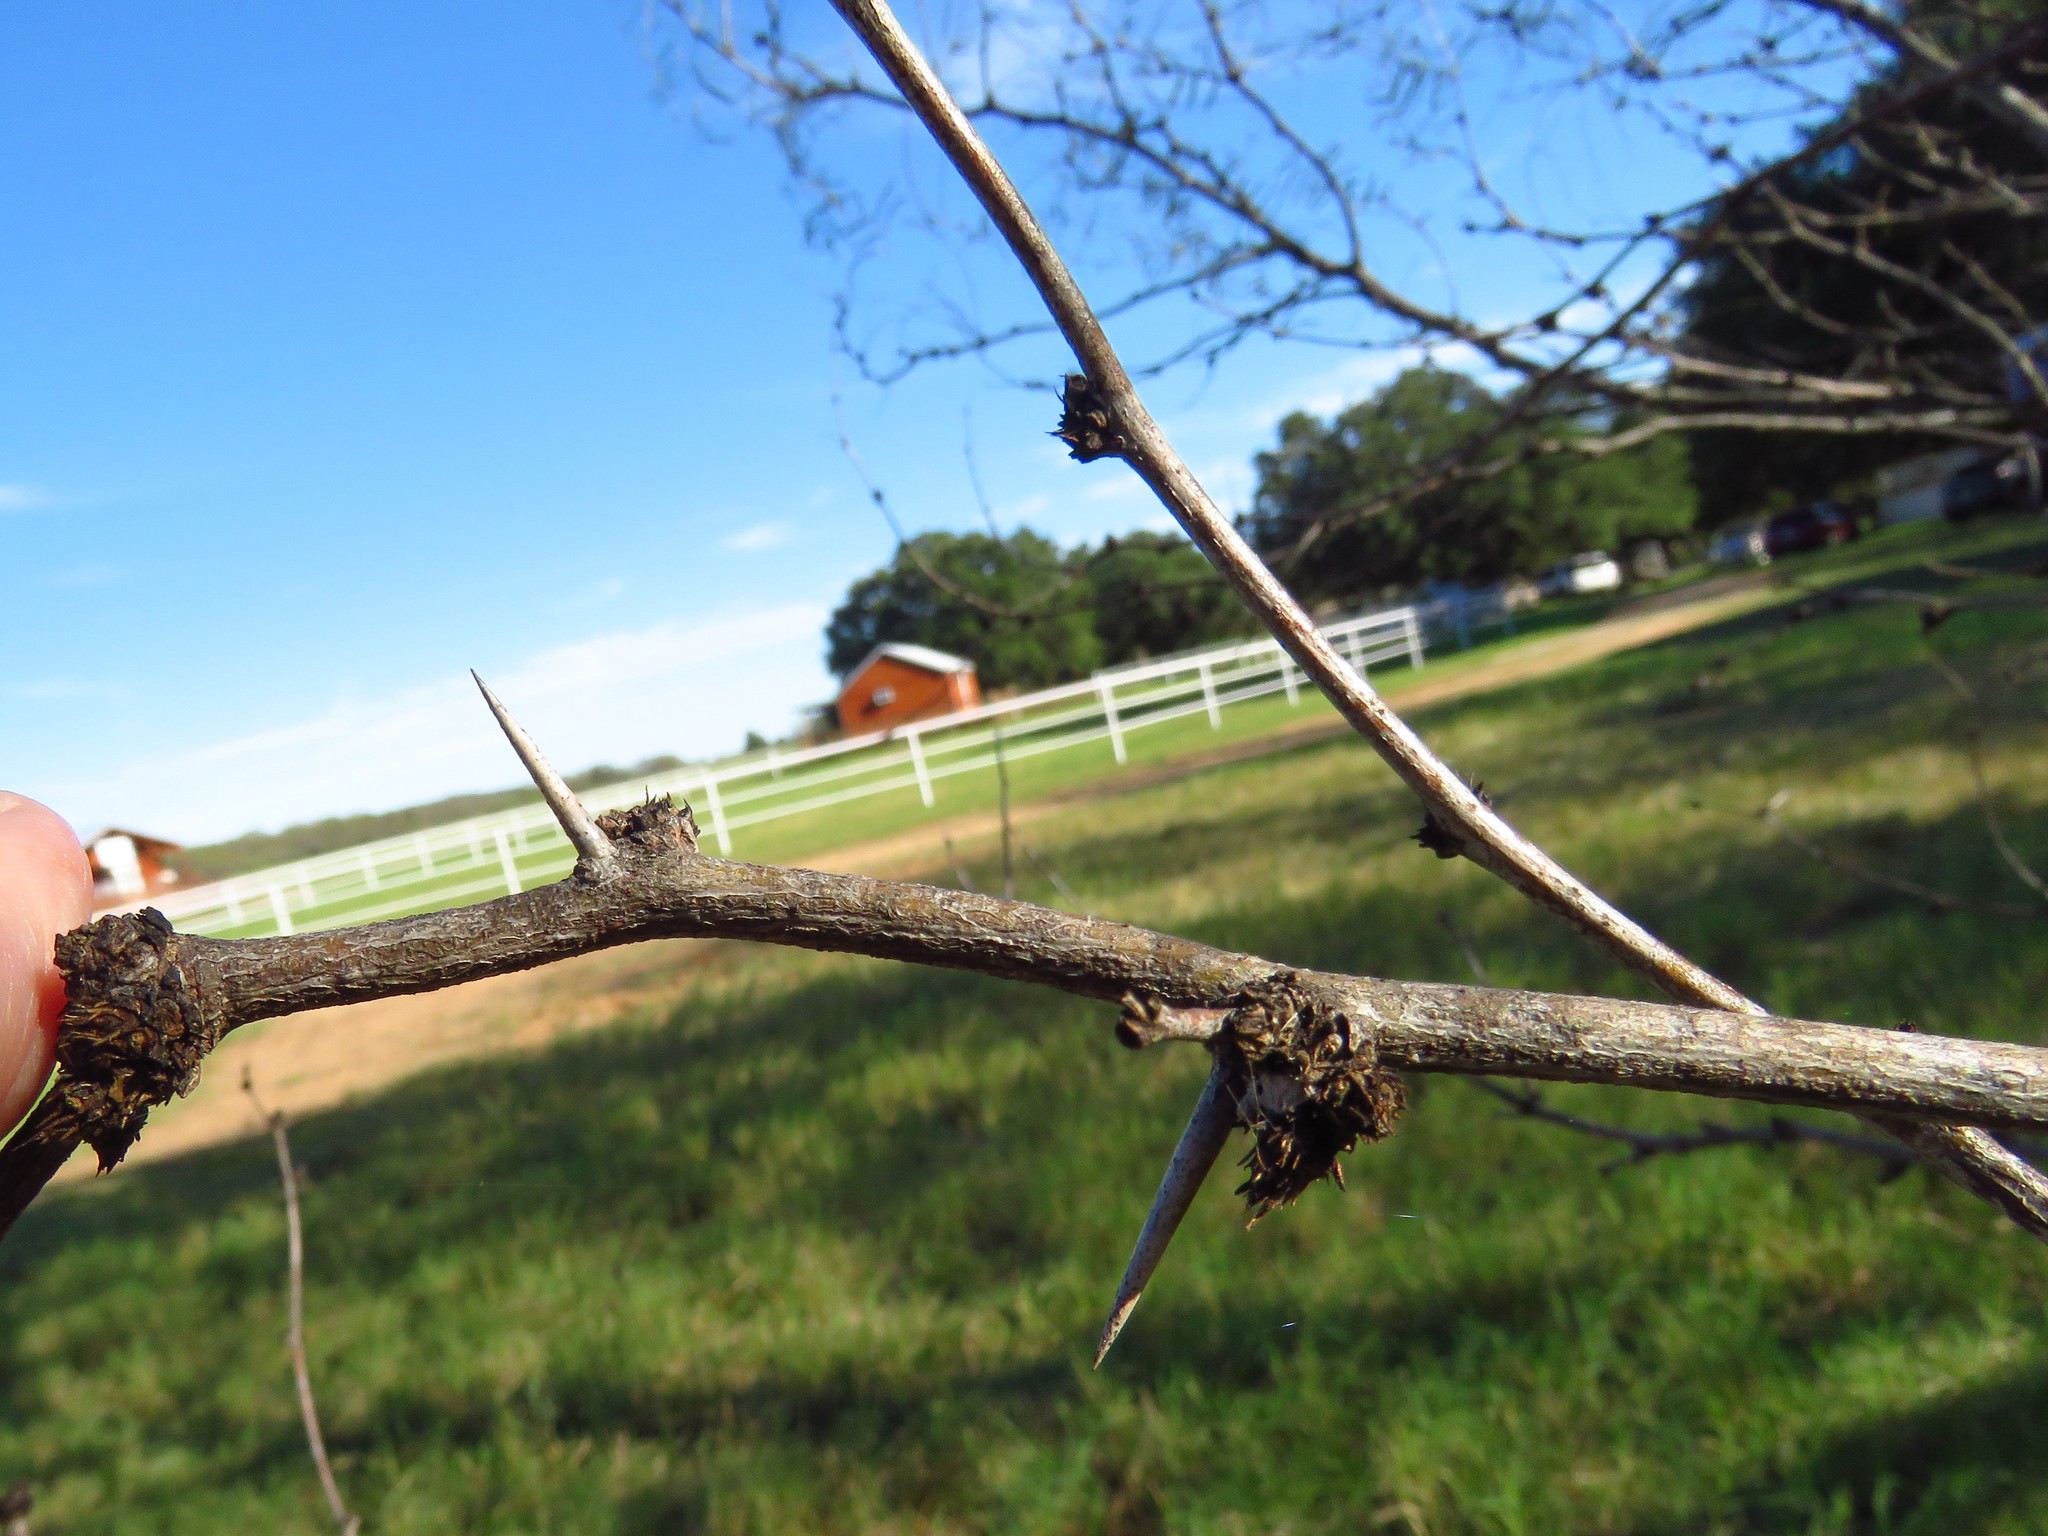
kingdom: Plantae
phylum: Tracheophyta
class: Magnoliopsida
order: Fabales
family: Fabaceae
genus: Prosopis
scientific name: Prosopis glandulosa
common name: Honey mesquite
